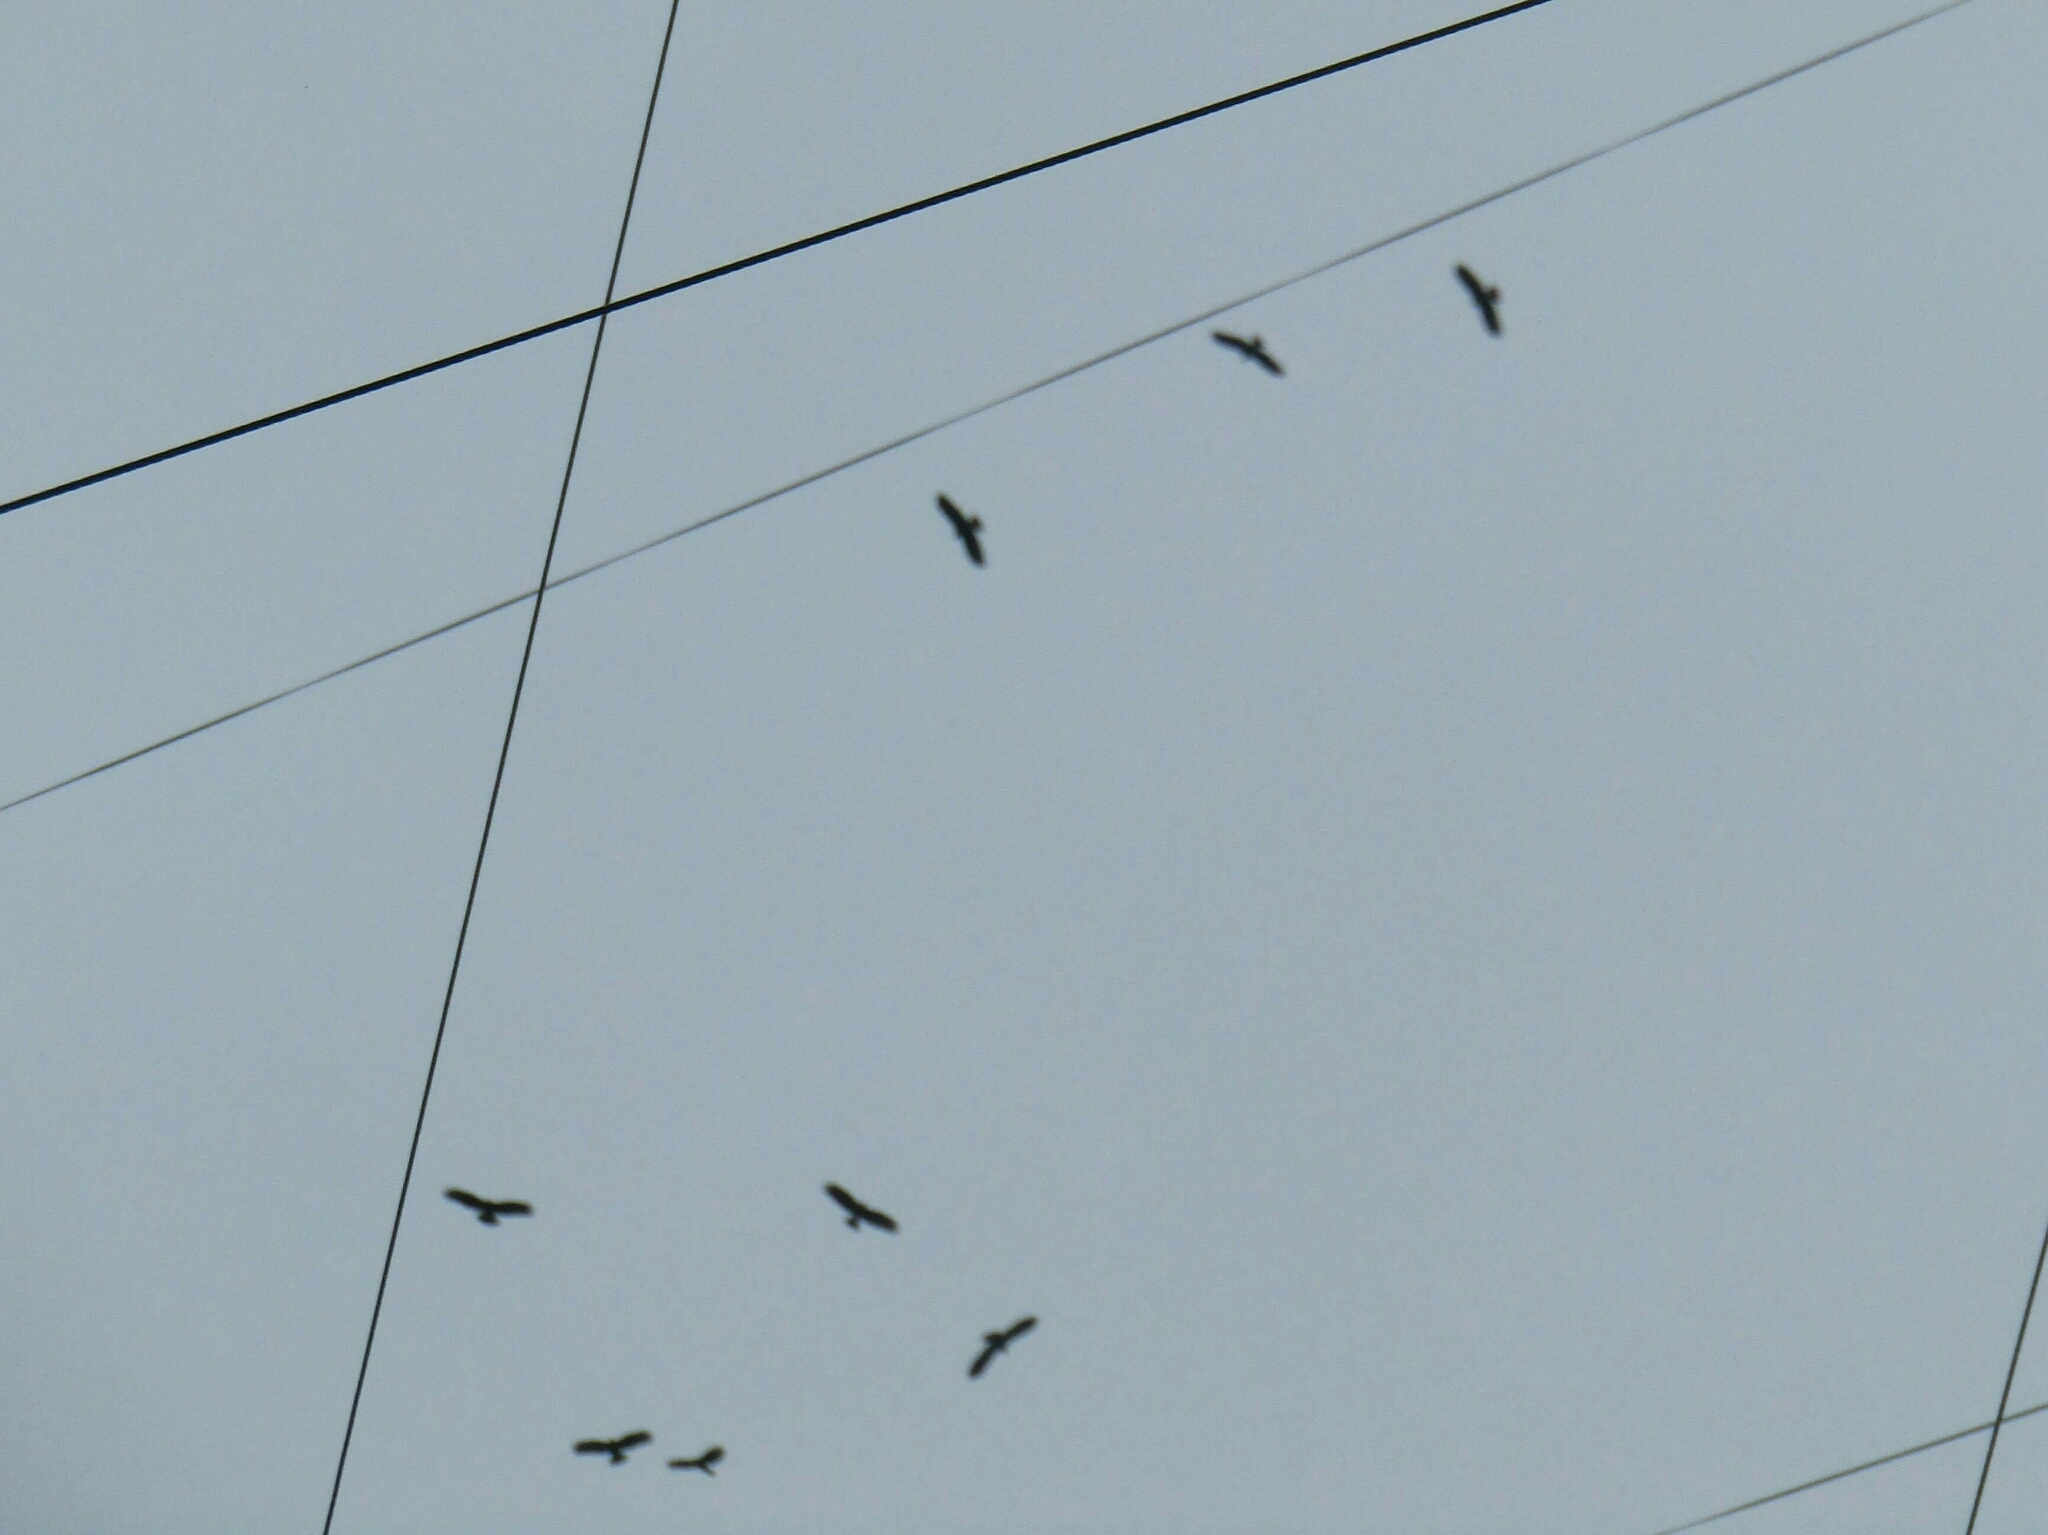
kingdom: Animalia
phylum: Chordata
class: Aves
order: Accipitriformes
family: Accipitridae
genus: Rostrhamus
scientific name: Rostrhamus sociabilis
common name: Snail kite
